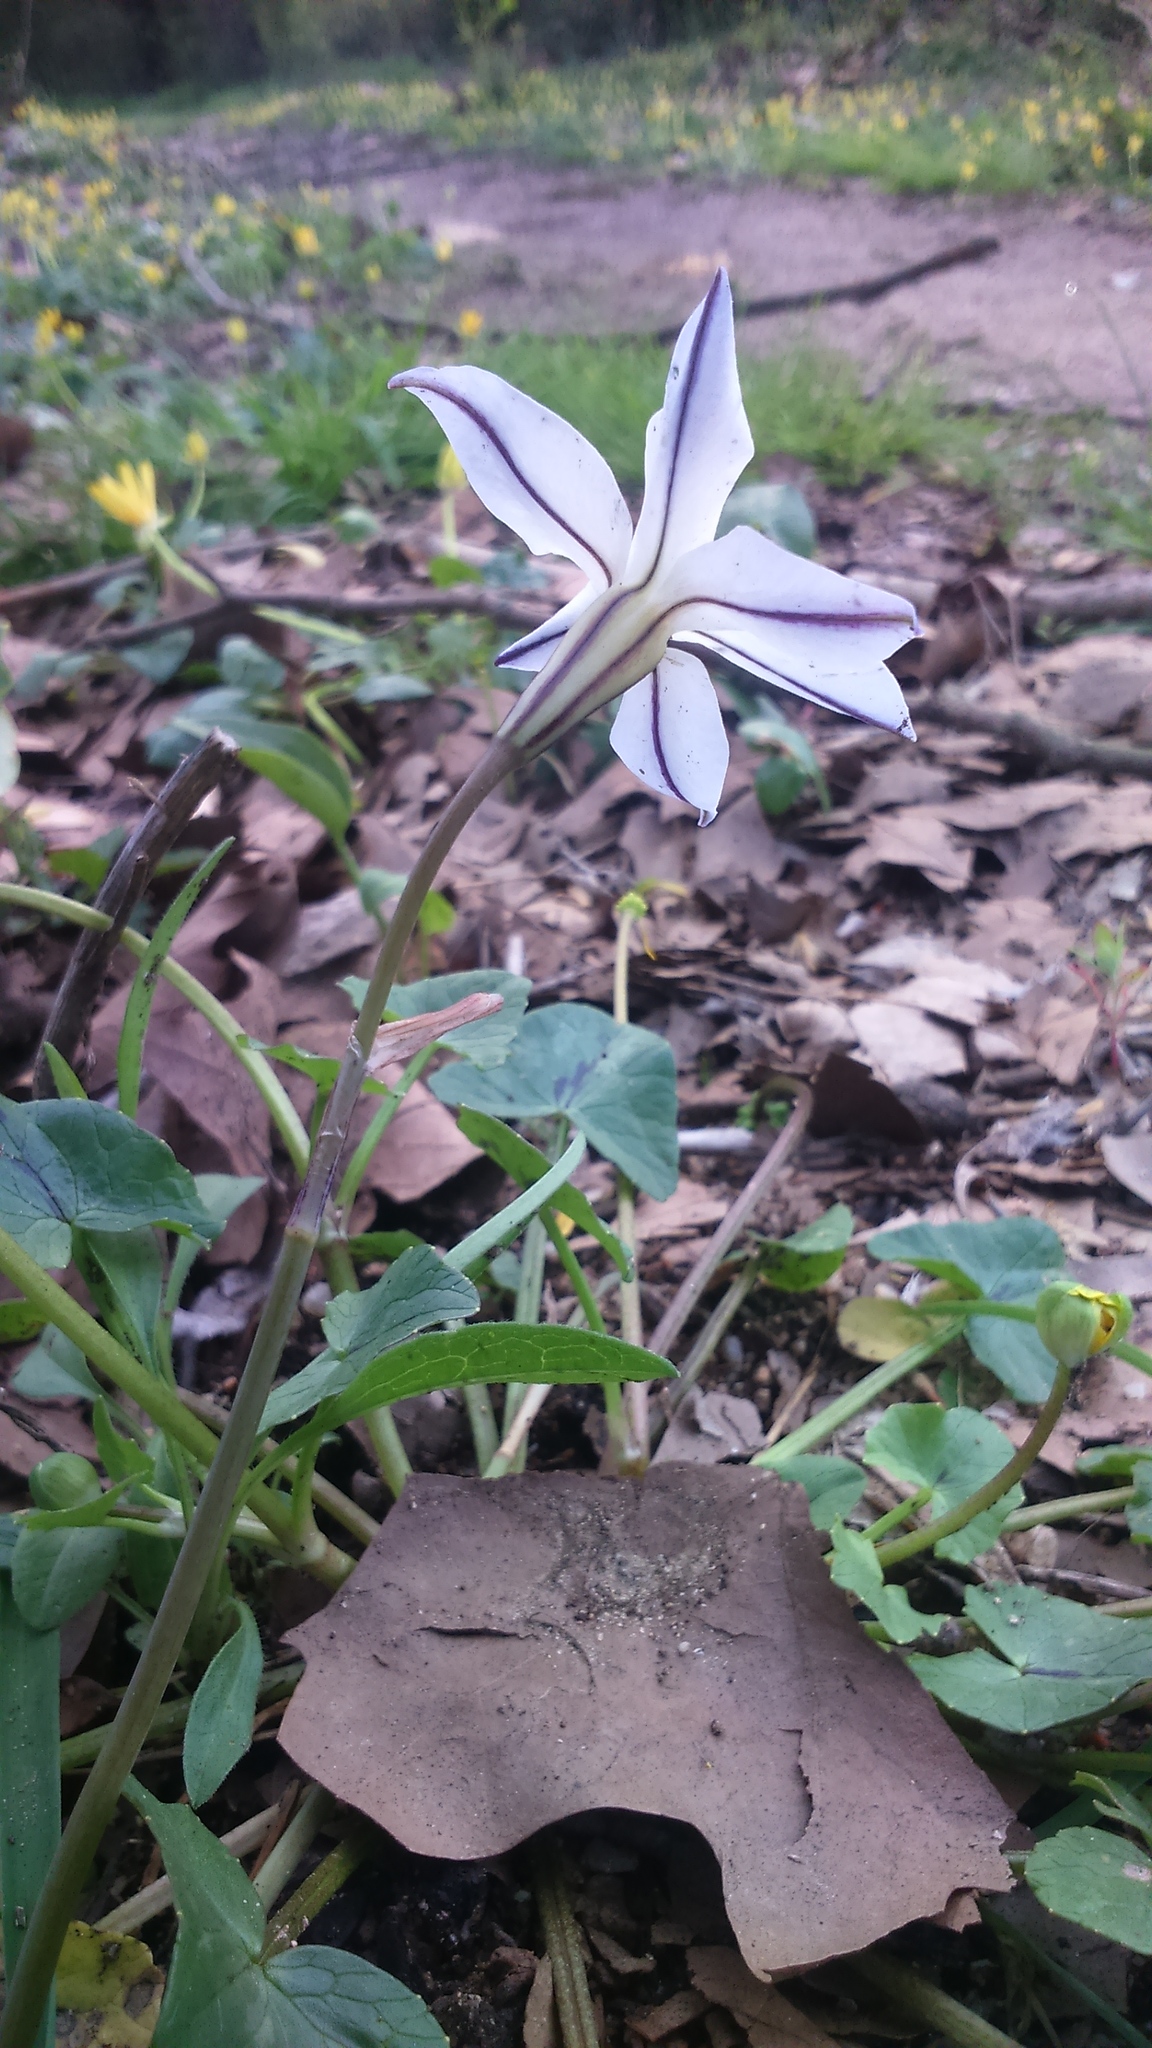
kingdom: Plantae
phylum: Tracheophyta
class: Liliopsida
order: Asparagales
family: Amaryllidaceae
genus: Ipheion
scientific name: Ipheion uniflorum
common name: Spring starflower
